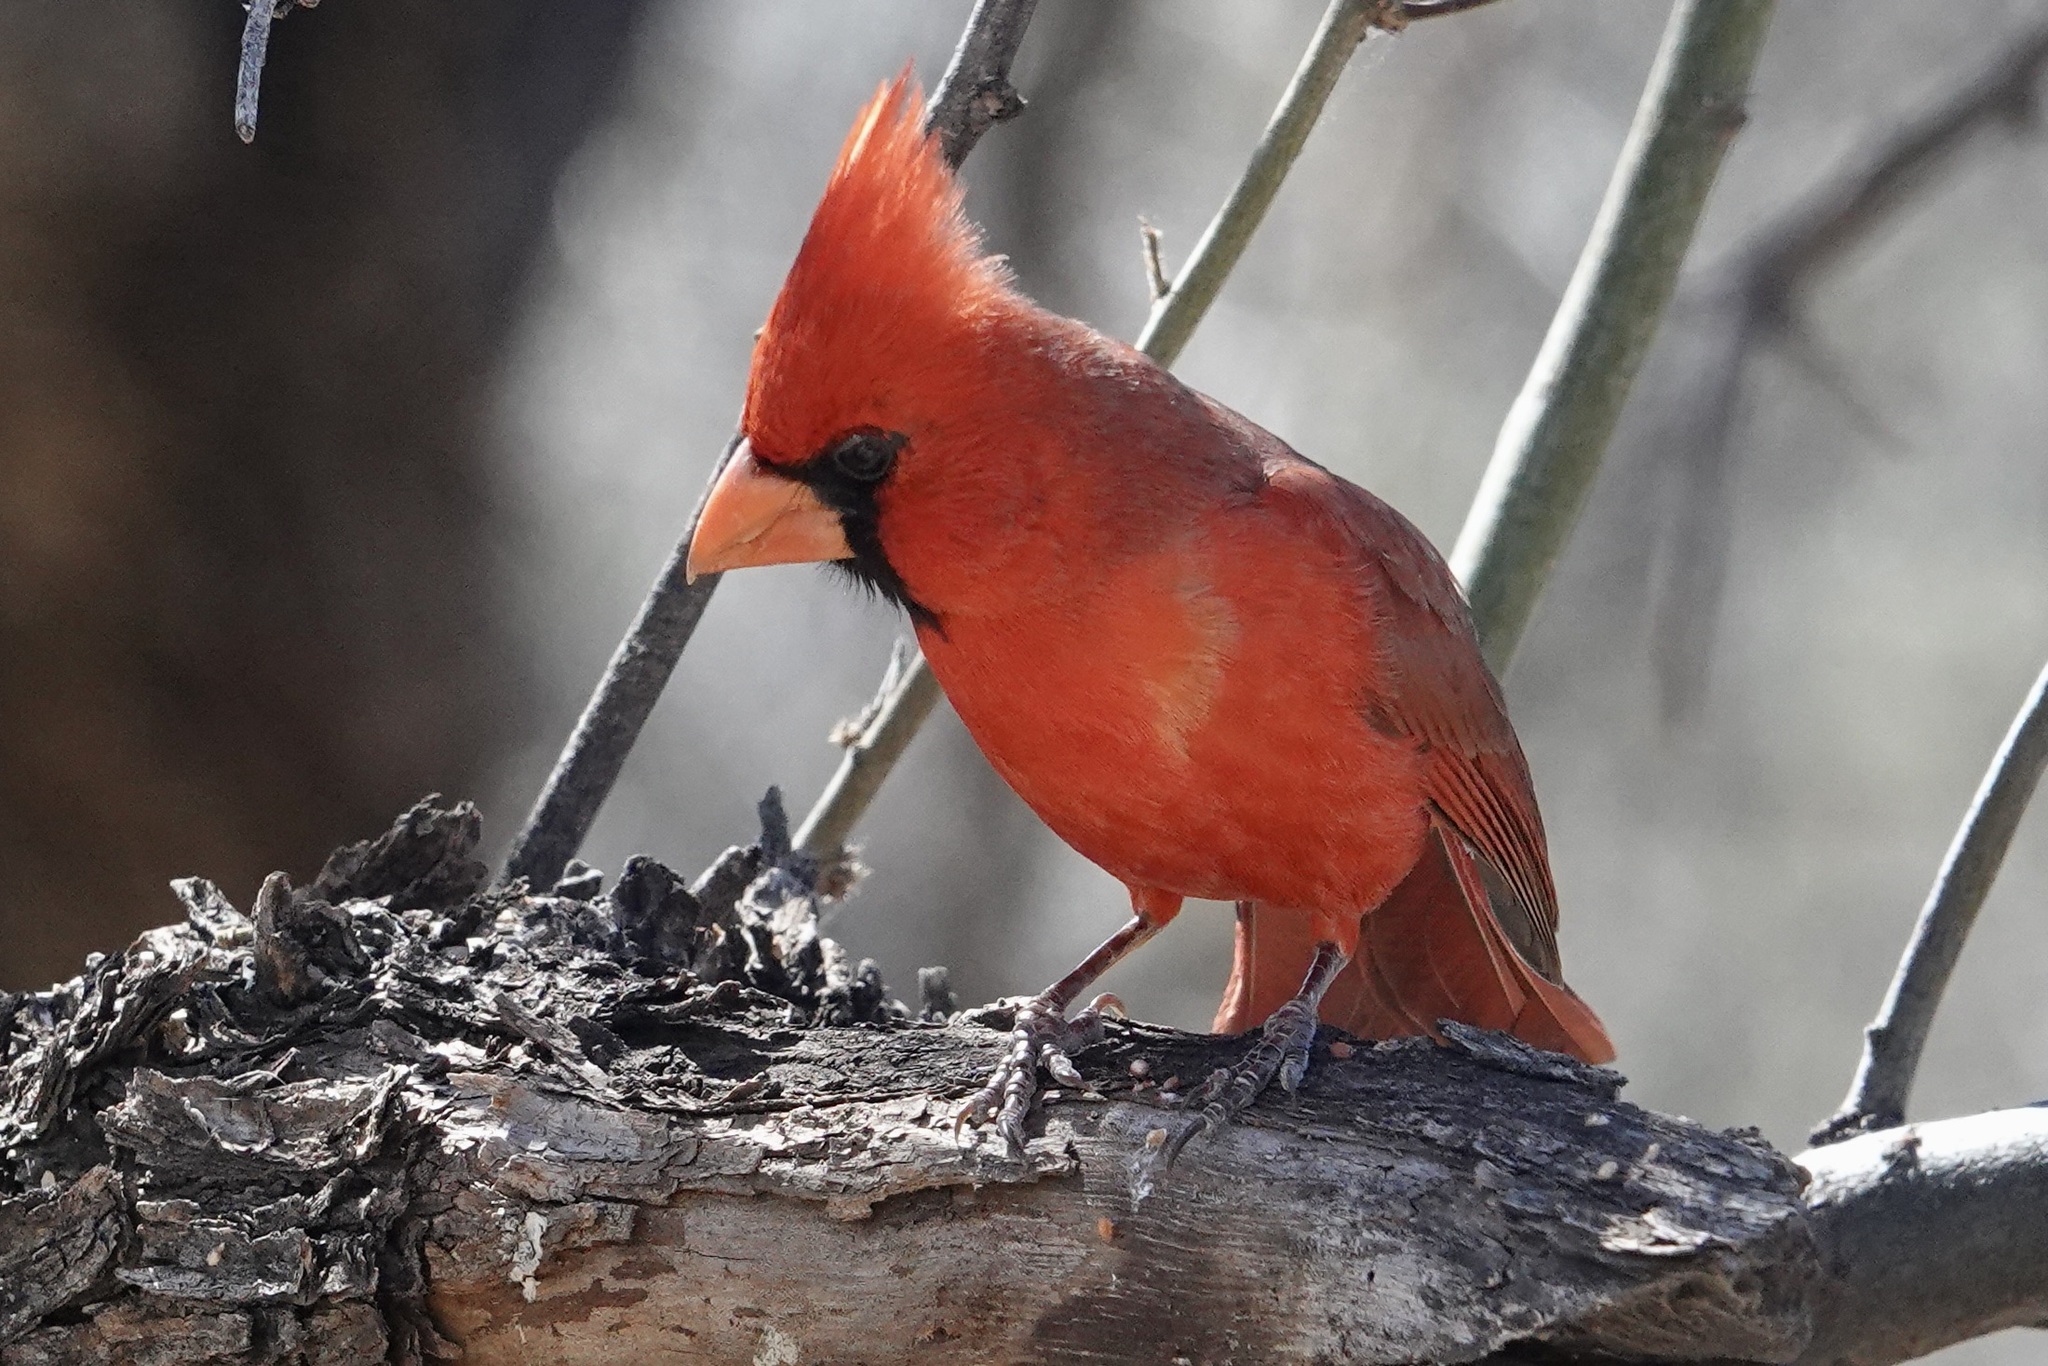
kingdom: Animalia
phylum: Chordata
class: Aves
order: Passeriformes
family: Cardinalidae
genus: Cardinalis
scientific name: Cardinalis cardinalis
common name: Northern cardinal
